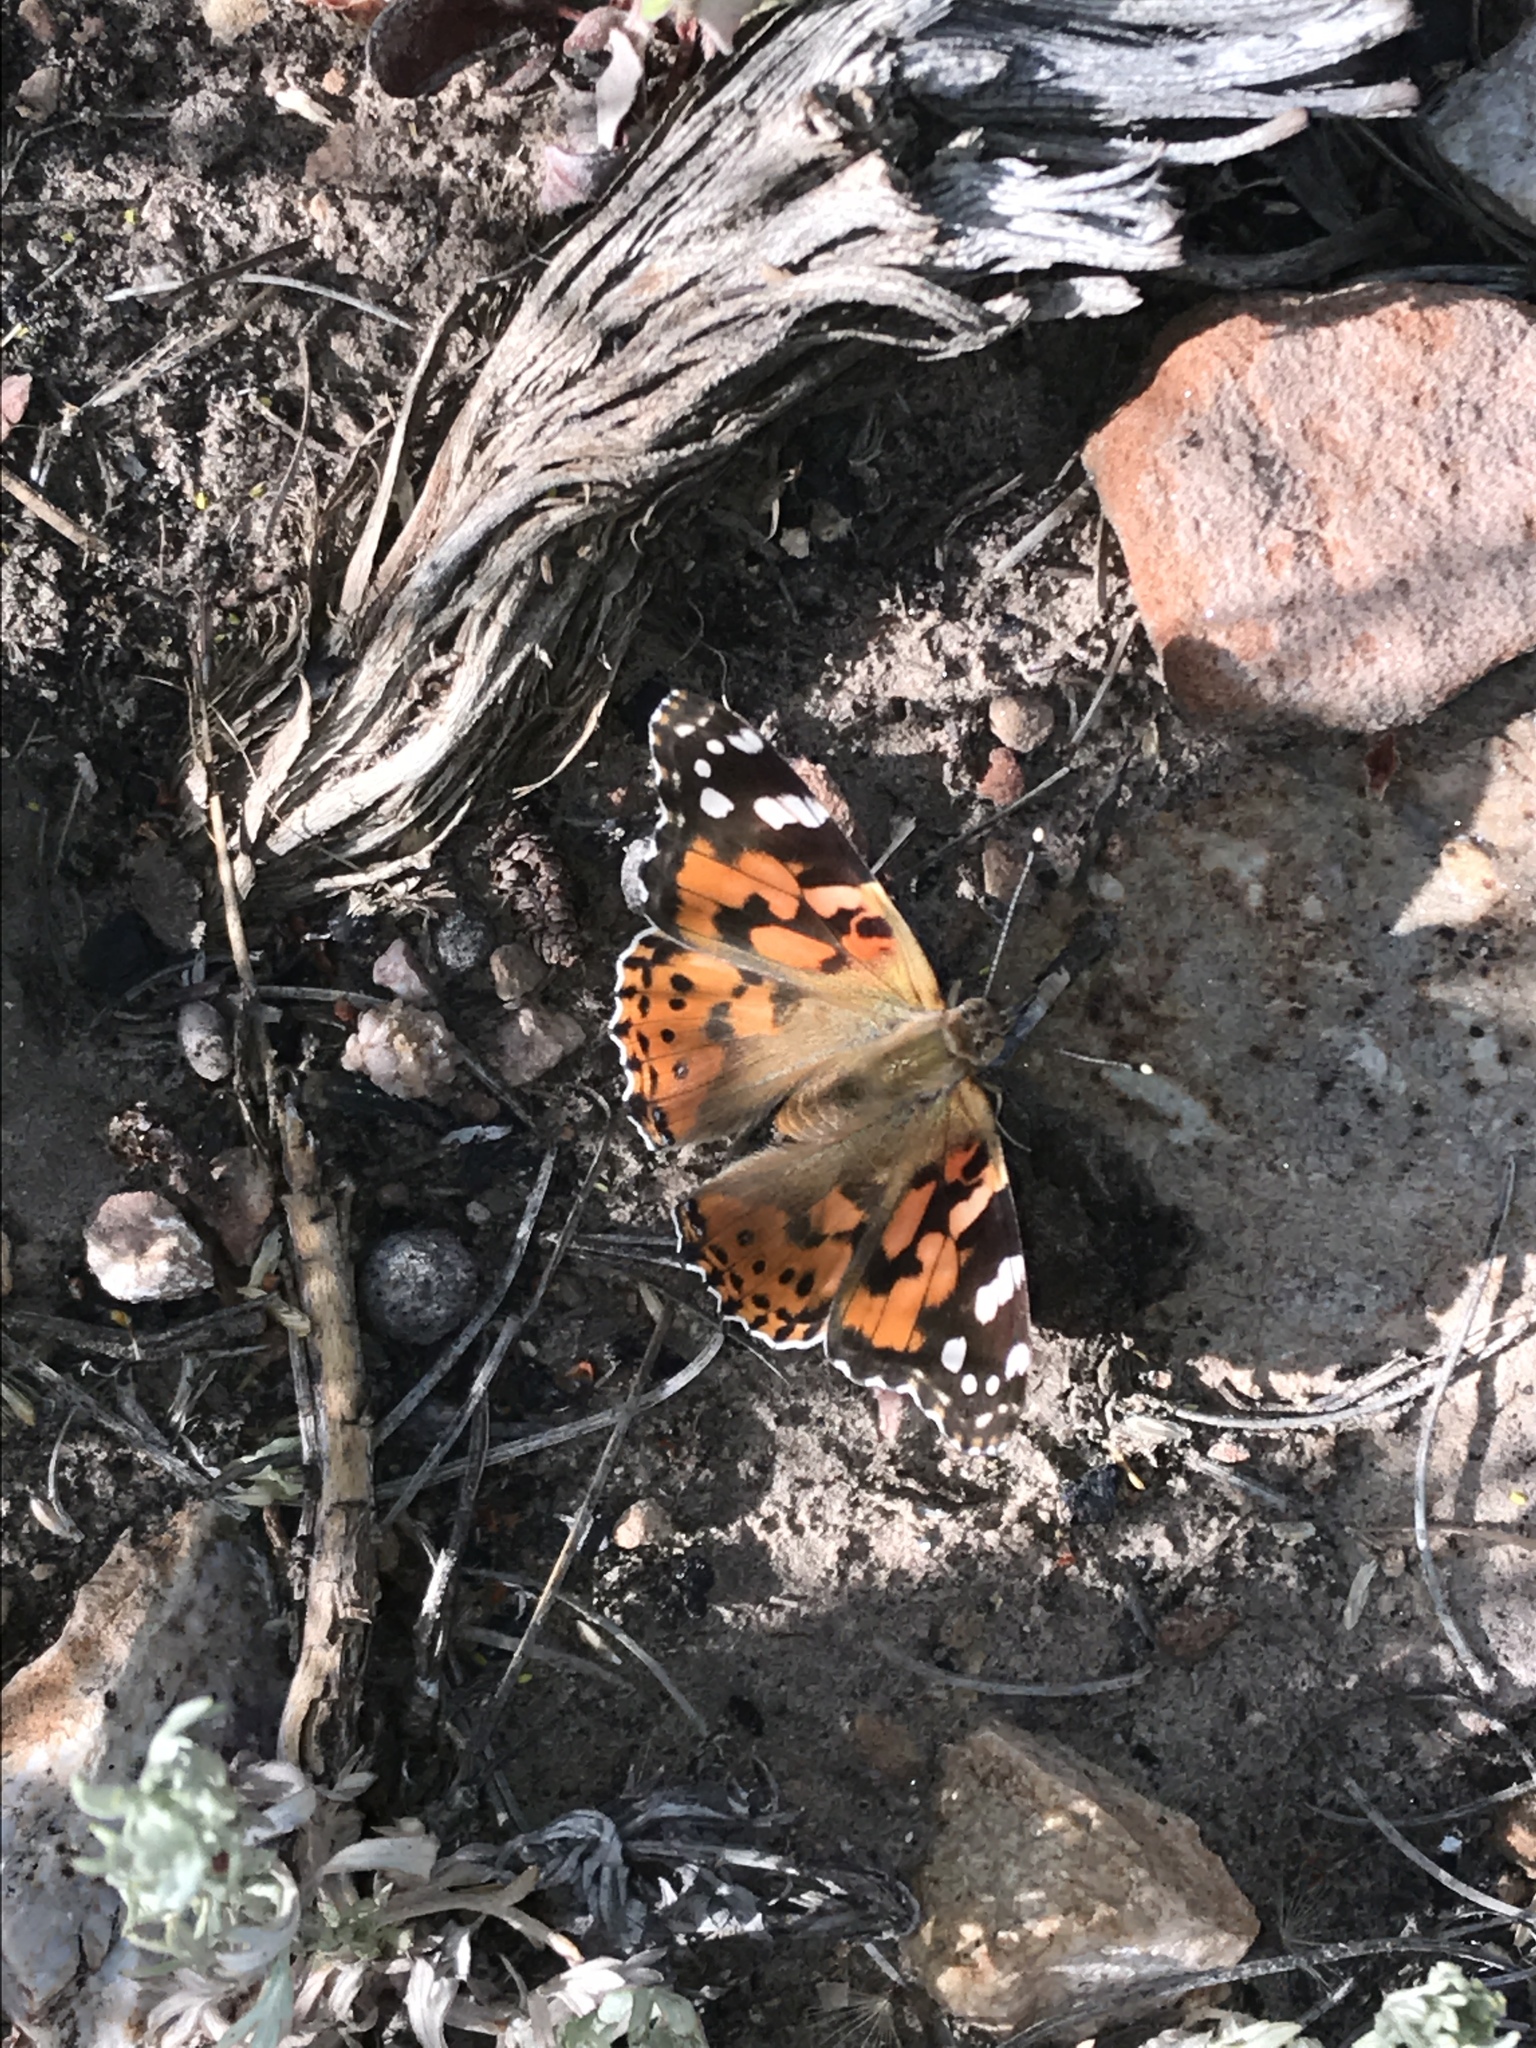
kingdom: Animalia
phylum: Arthropoda
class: Insecta
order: Lepidoptera
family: Nymphalidae
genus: Vanessa
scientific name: Vanessa cardui
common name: Painted lady
